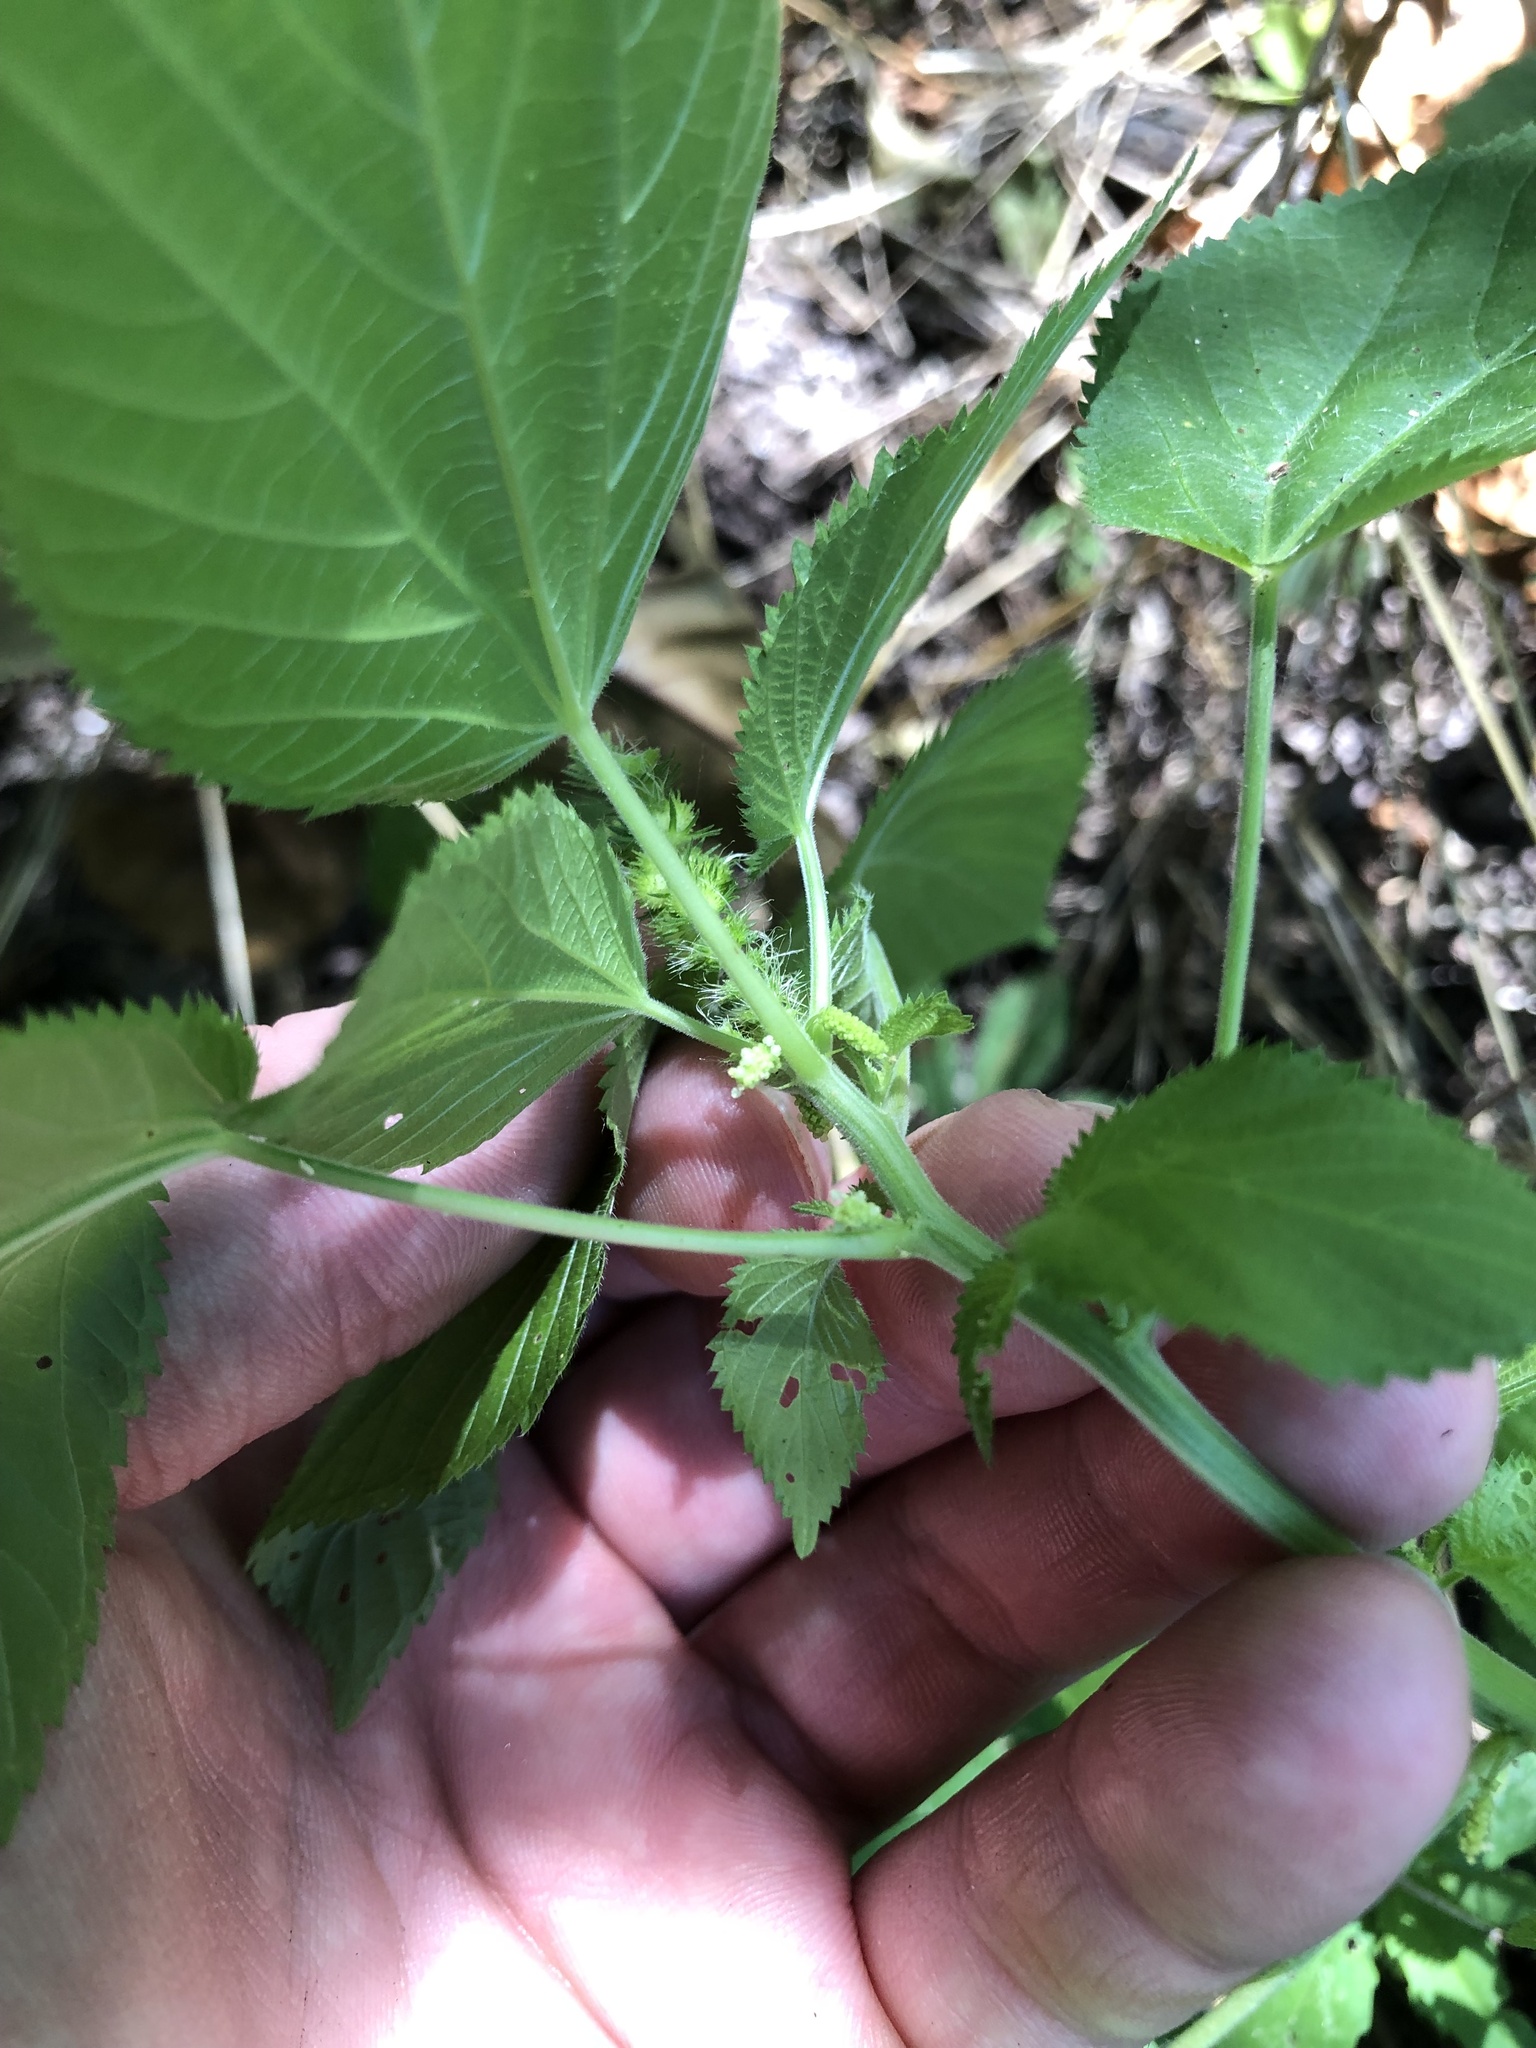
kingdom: Plantae
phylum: Tracheophyta
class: Magnoliopsida
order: Malpighiales
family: Euphorbiaceae
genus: Acalypha
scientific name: Acalypha ostryifolia
